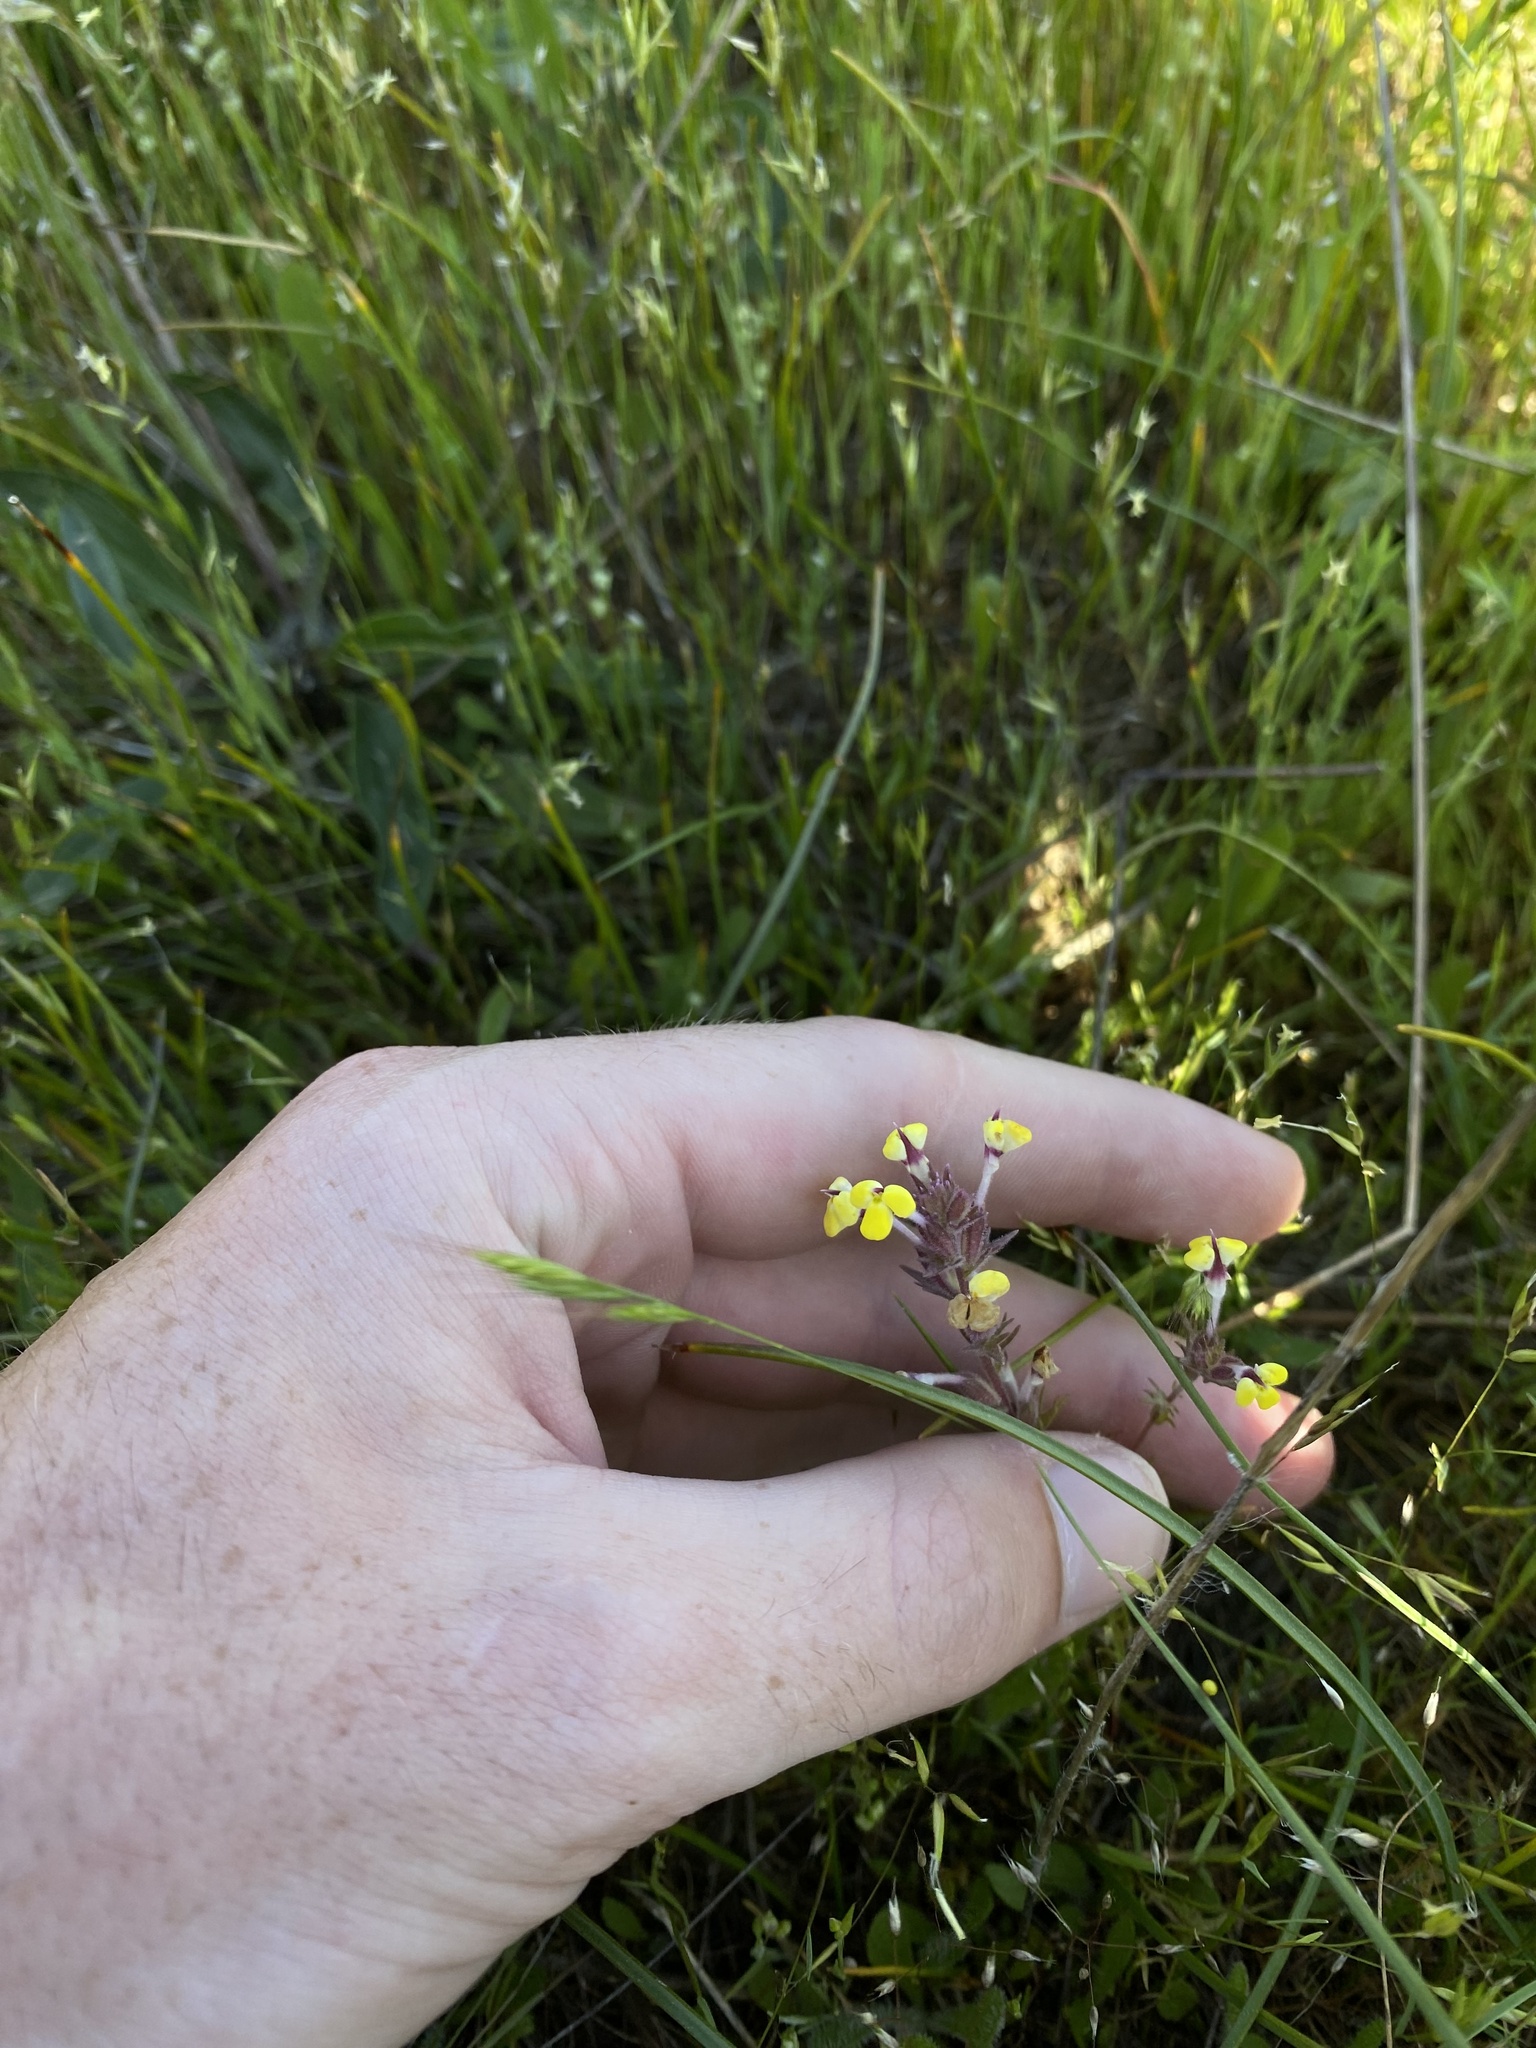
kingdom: Plantae
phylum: Tracheophyta
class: Magnoliopsida
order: Lamiales
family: Orobanchaceae
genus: Triphysaria
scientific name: Triphysaria eriantha
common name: Johnny-tuck
